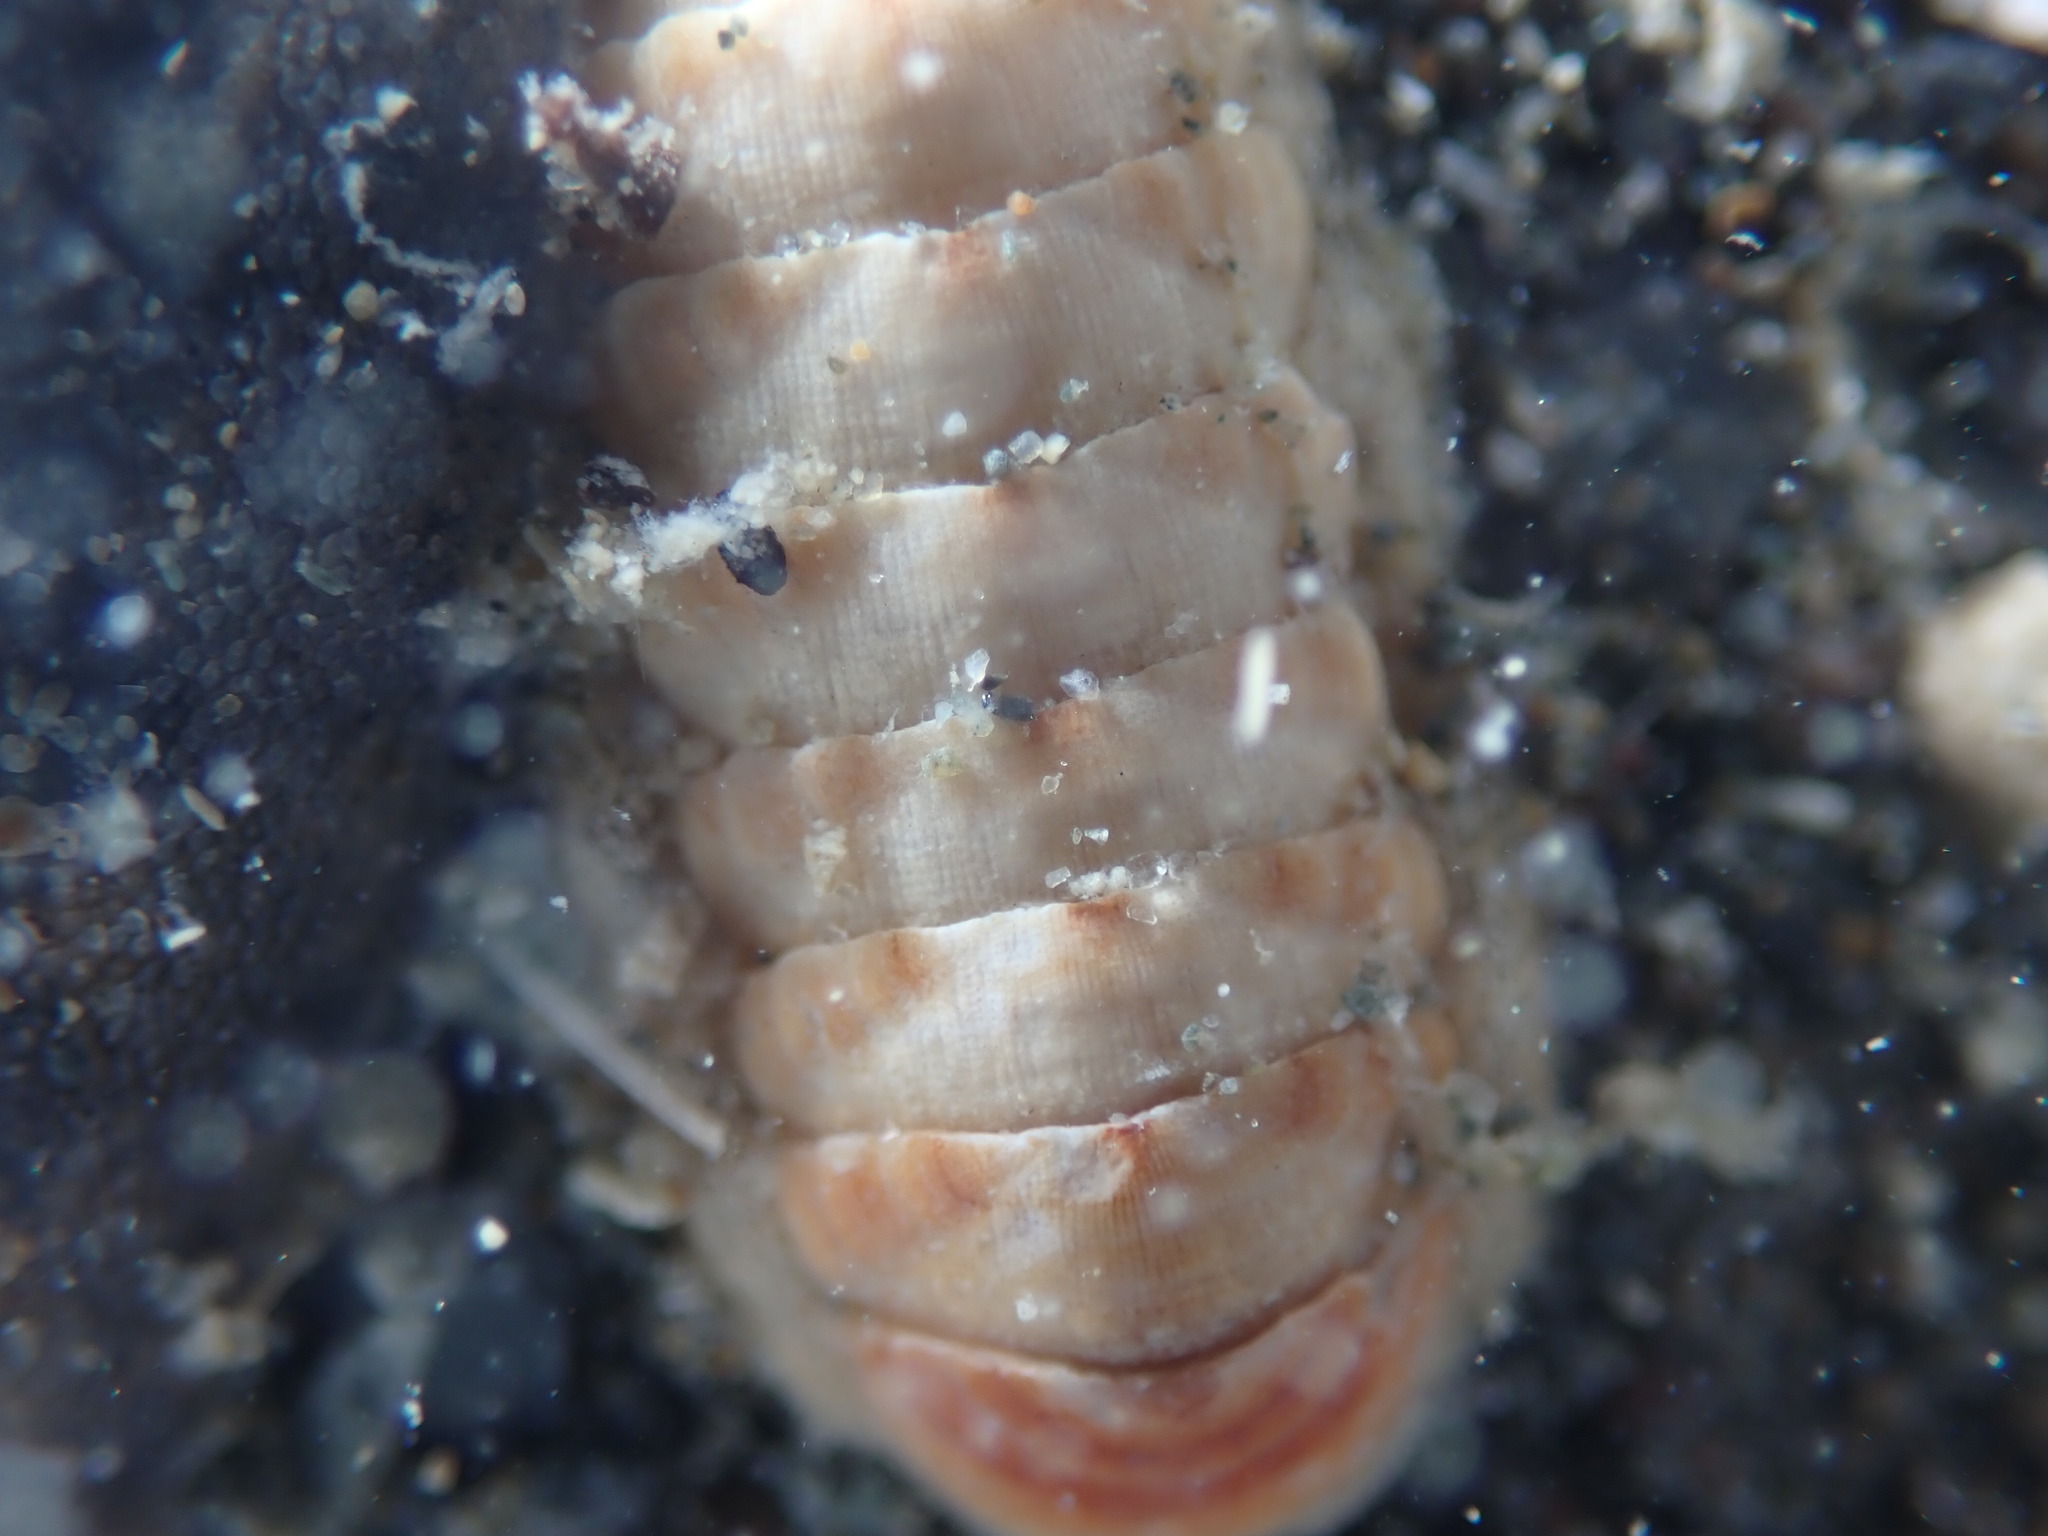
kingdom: Animalia
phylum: Mollusca
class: Polyplacophora
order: Lepidopleurida
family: Leptochitonidae
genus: Leptochiton
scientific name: Leptochiton inquinatus
